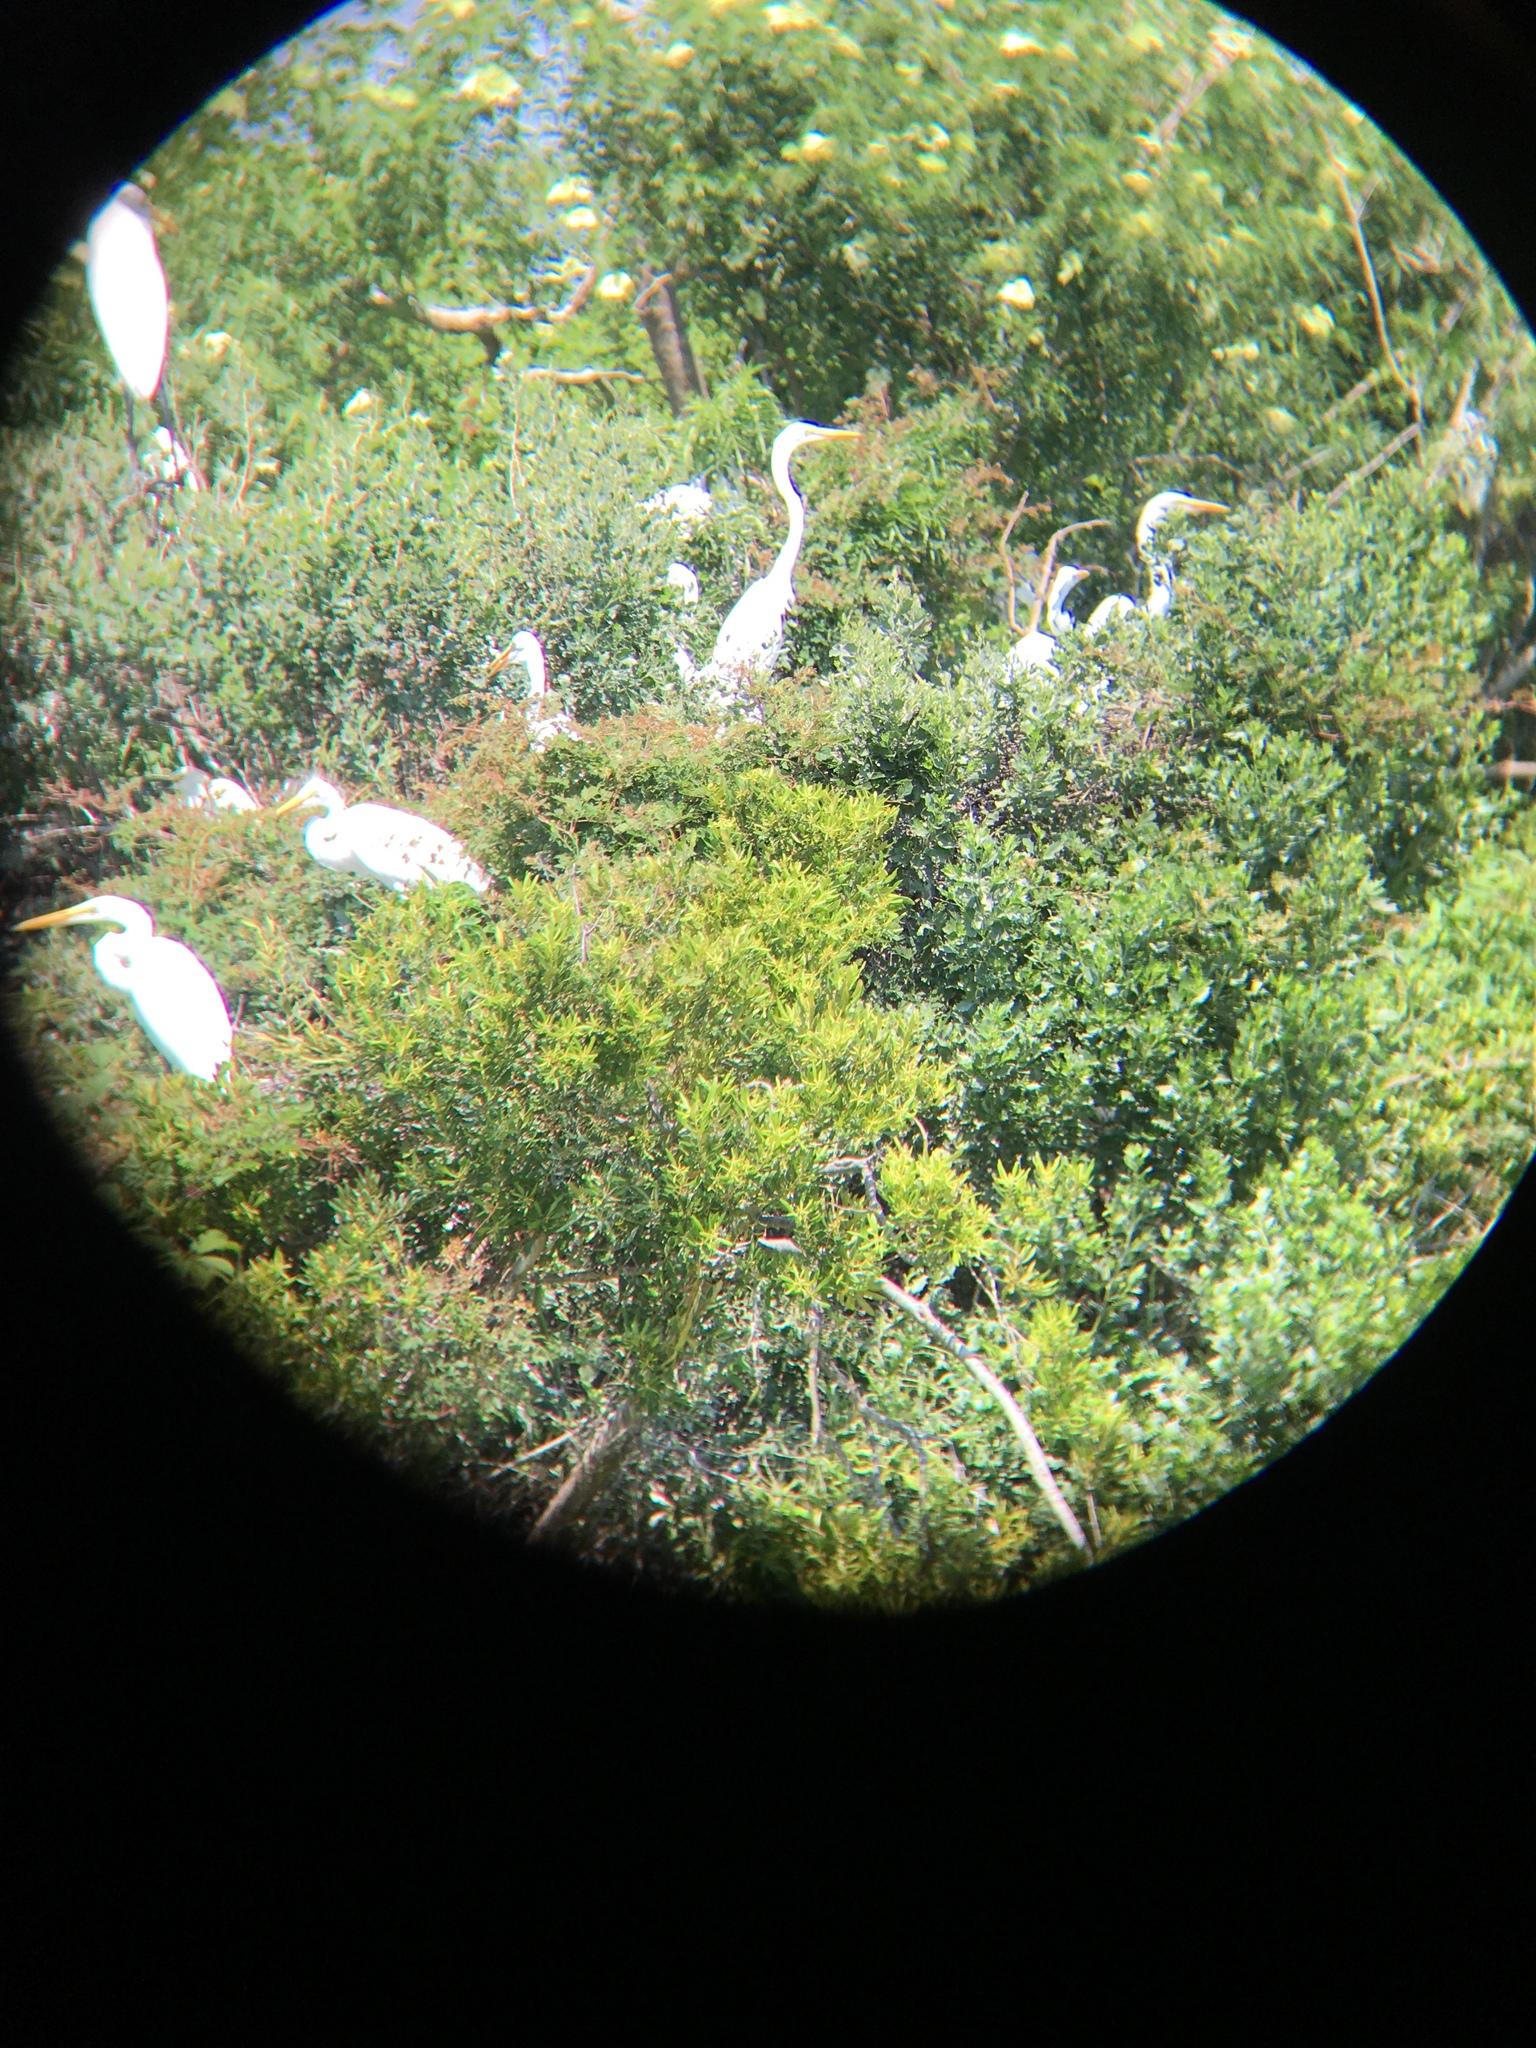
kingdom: Animalia
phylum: Chordata
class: Aves
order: Pelecaniformes
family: Ardeidae
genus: Ardea
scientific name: Ardea alba
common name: Great egret
